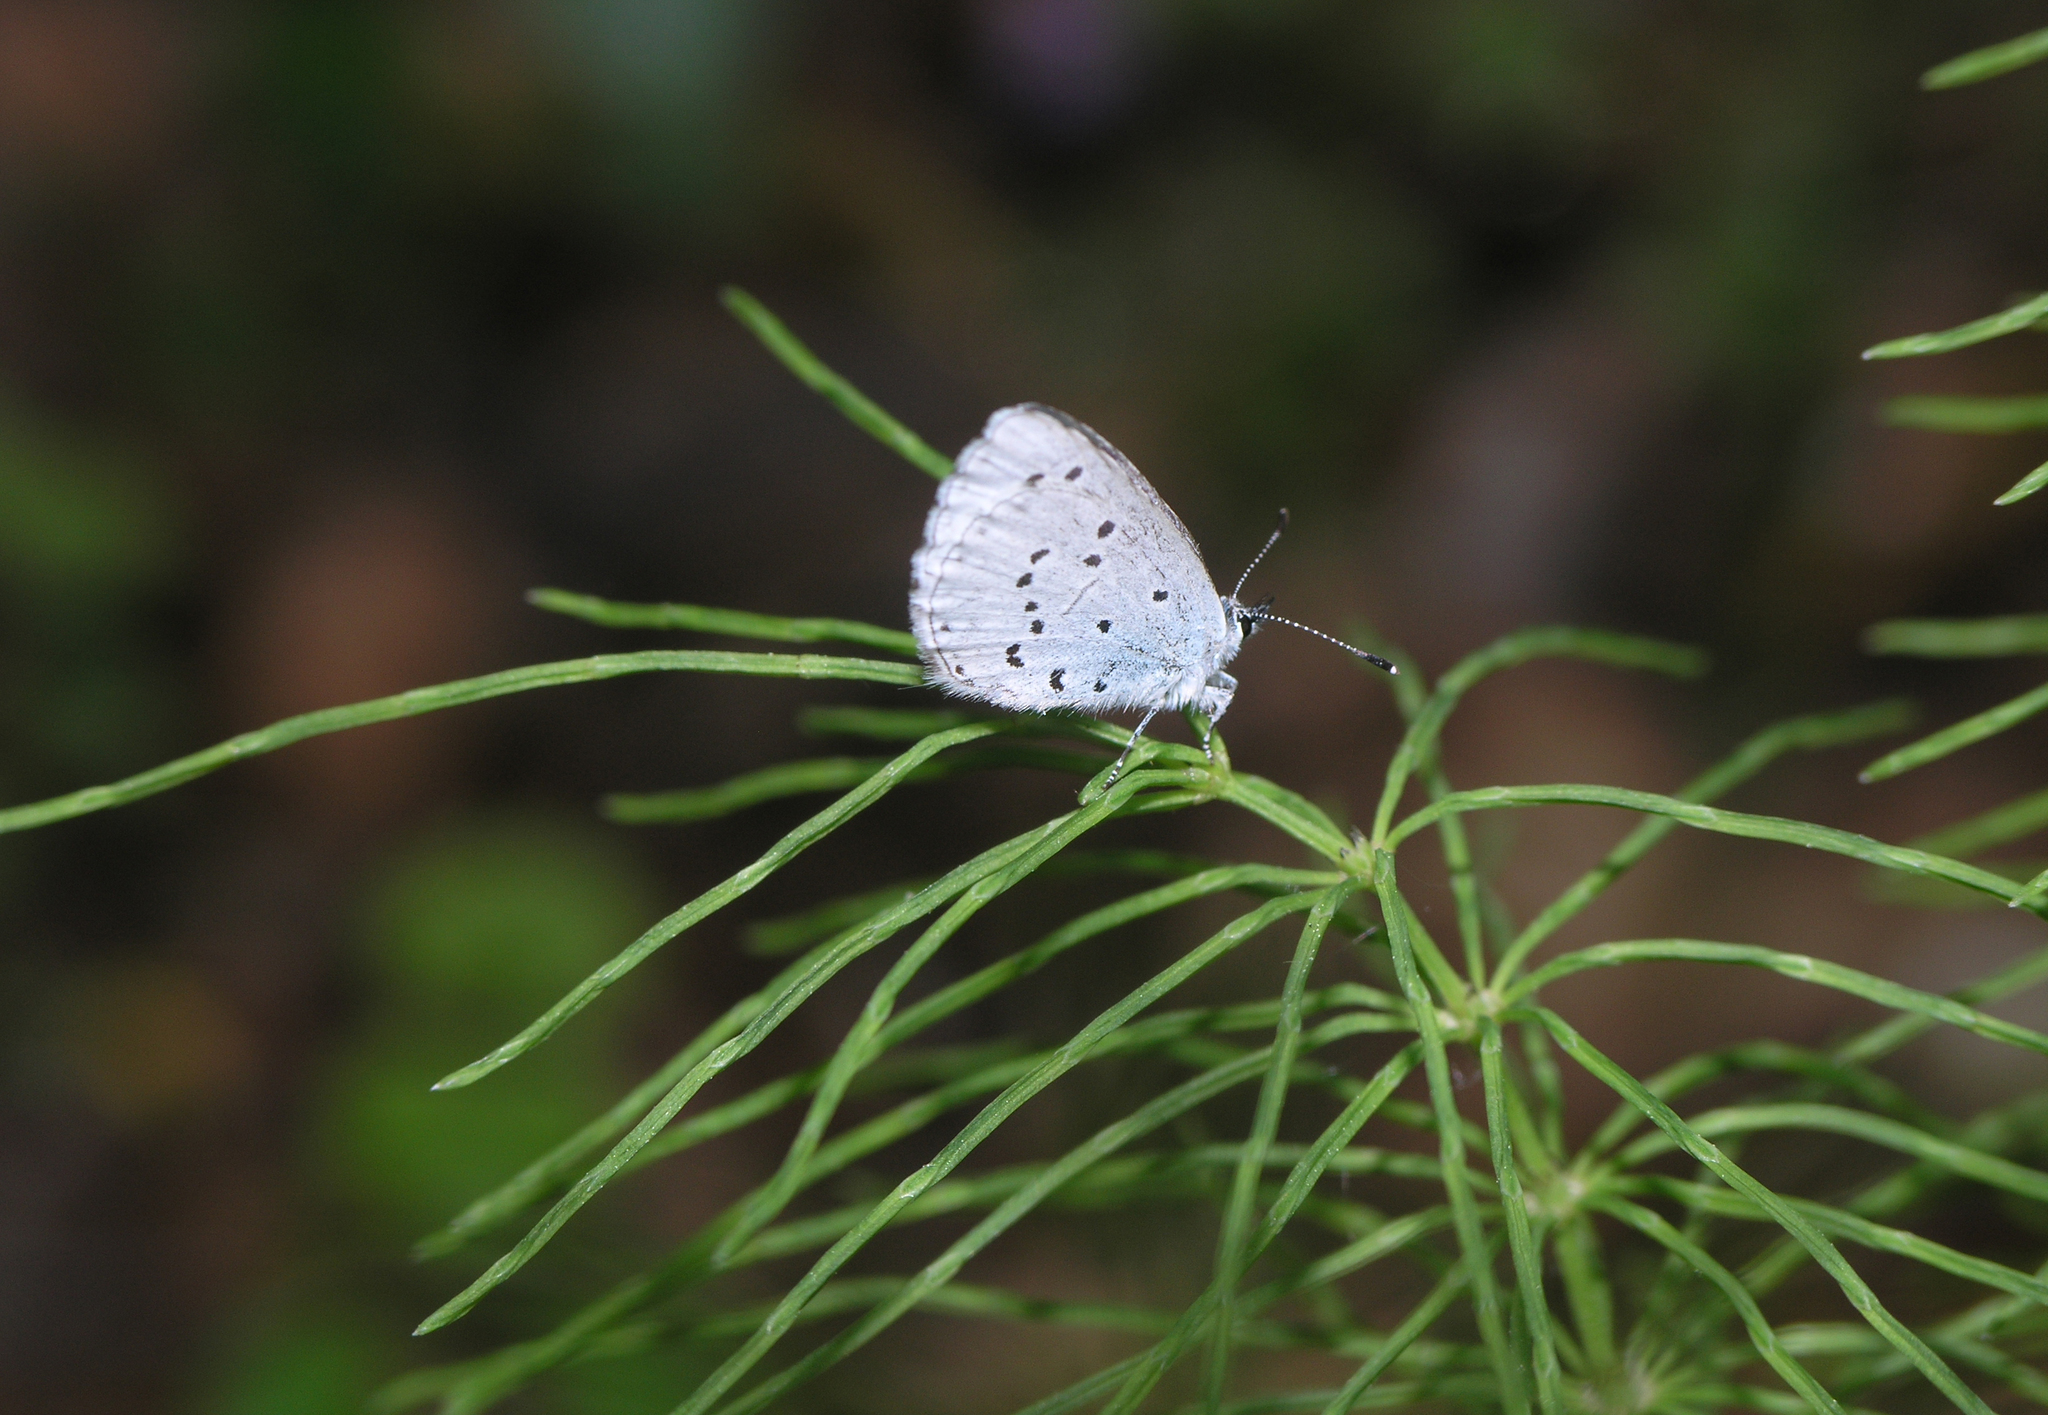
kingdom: Plantae
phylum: Tracheophyta
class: Polypodiopsida
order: Equisetales
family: Equisetaceae
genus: Equisetum
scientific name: Equisetum pratense
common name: Meadow horsetail
